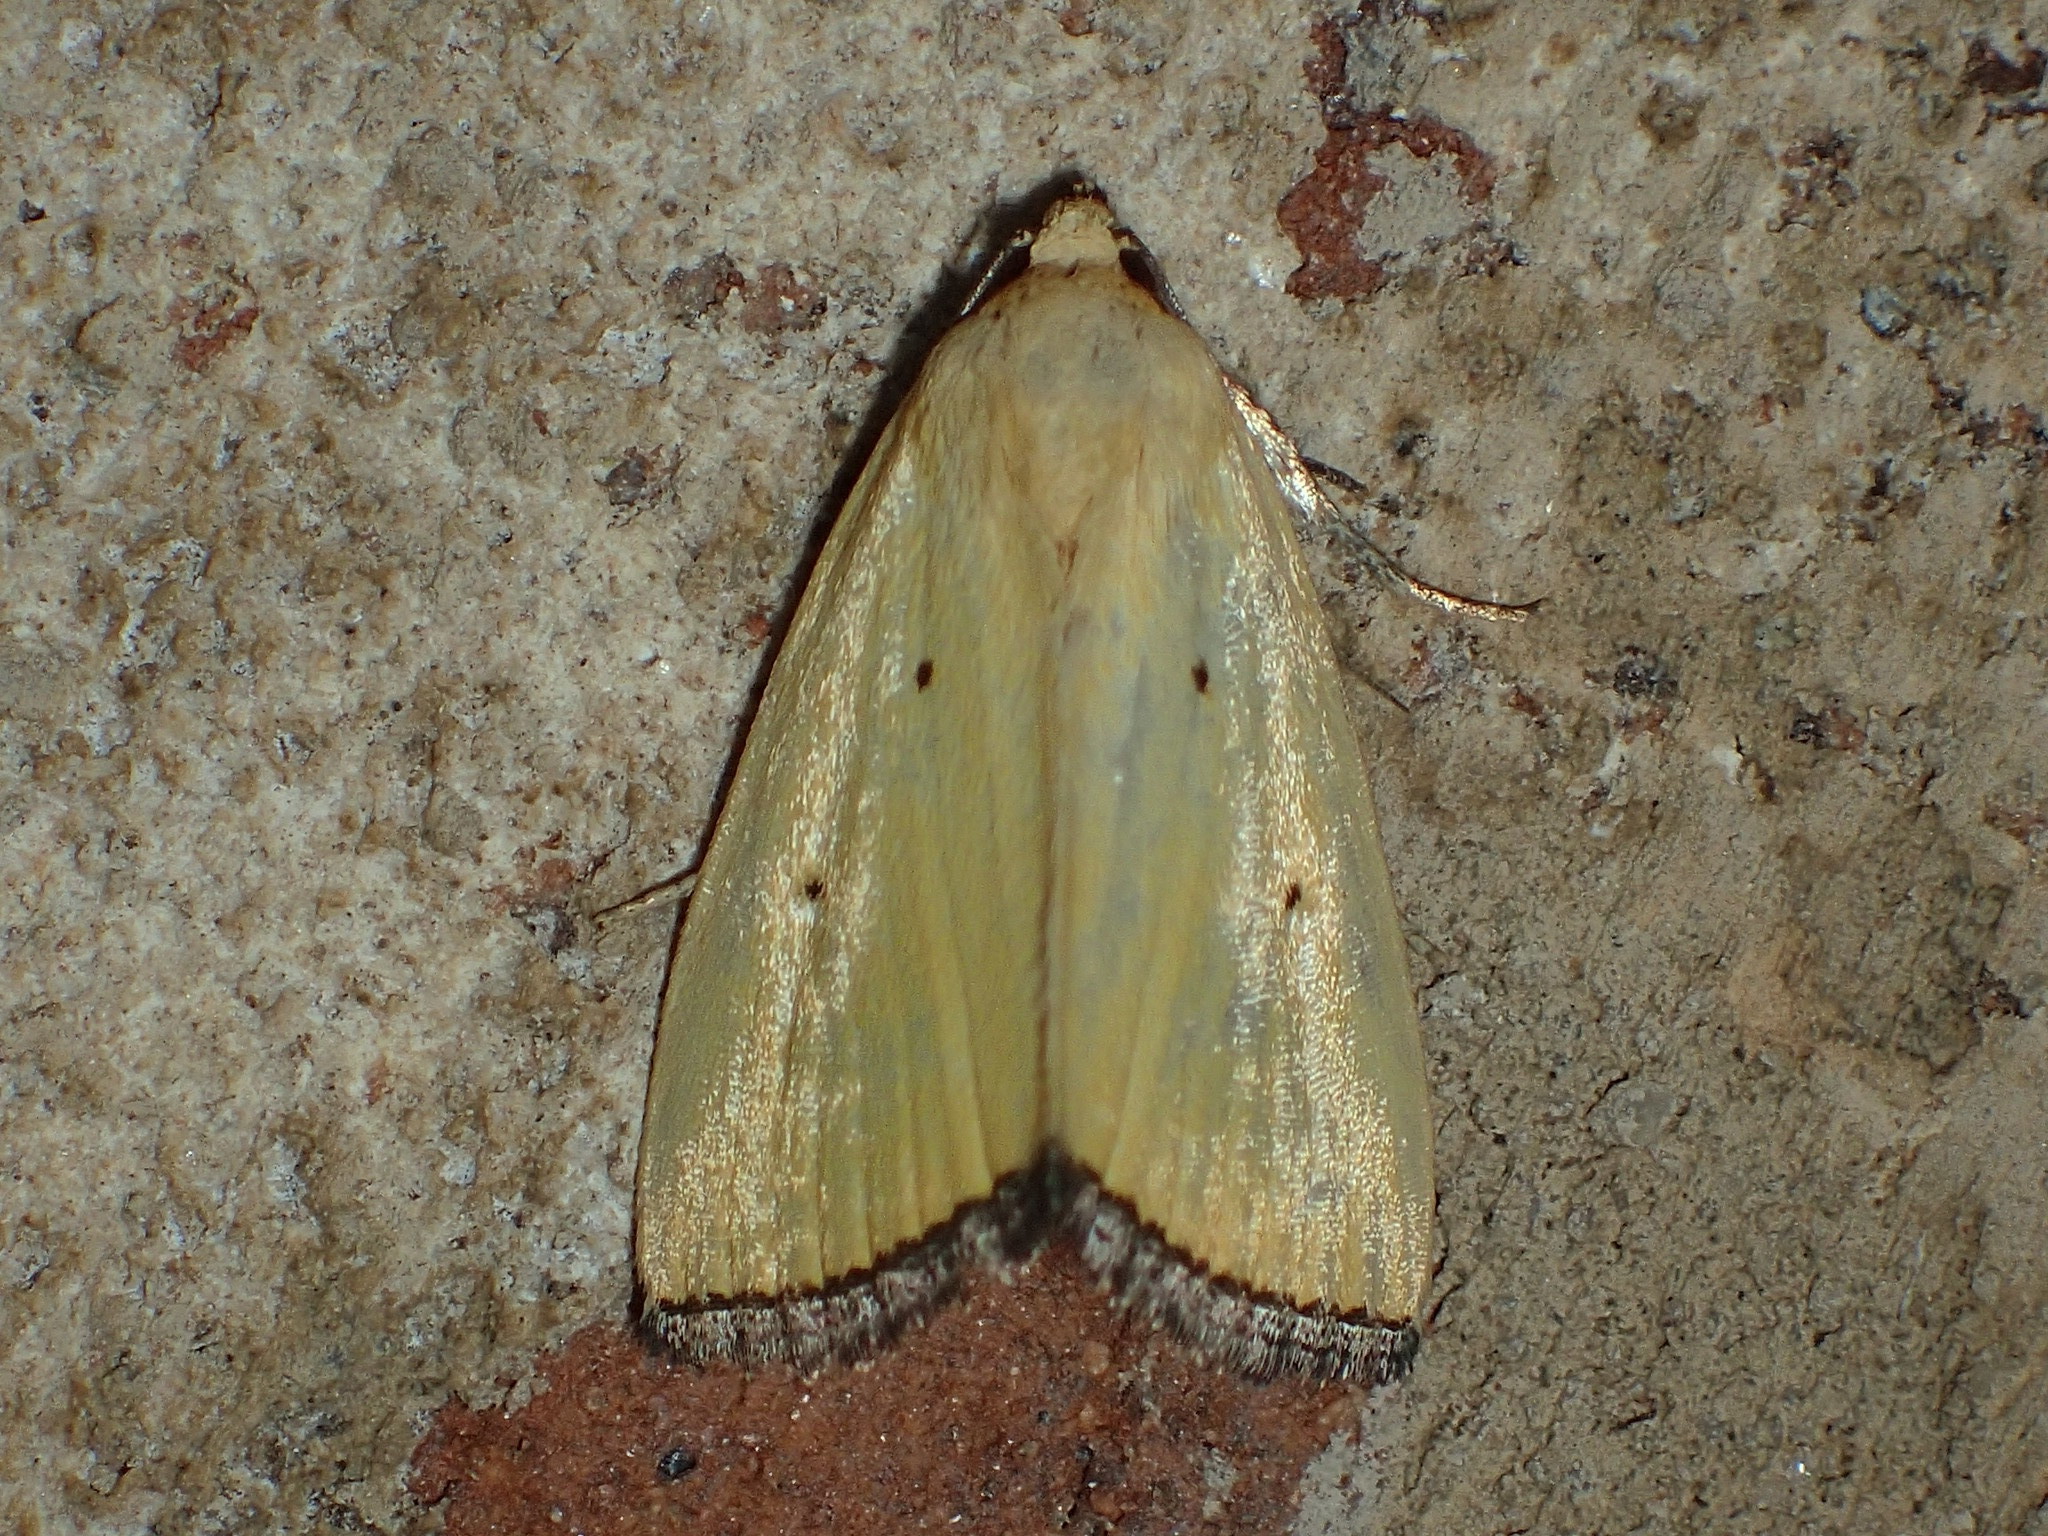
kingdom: Animalia
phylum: Arthropoda
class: Insecta
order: Lepidoptera
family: Noctuidae
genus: Marimatha
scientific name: Marimatha nigrofimbria
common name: Black-bordered lemon moth
